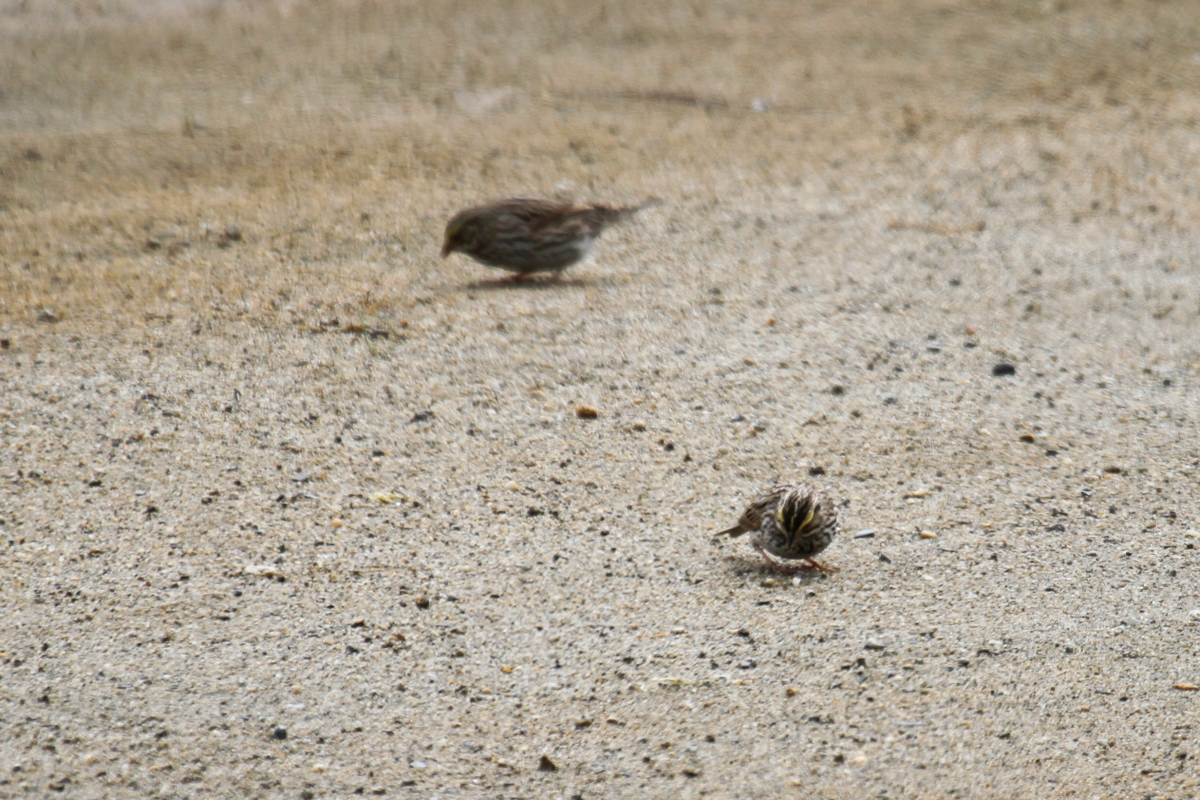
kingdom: Animalia
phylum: Chordata
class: Aves
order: Passeriformes
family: Passerellidae
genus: Passerculus
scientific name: Passerculus sandwichensis
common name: Savannah sparrow
